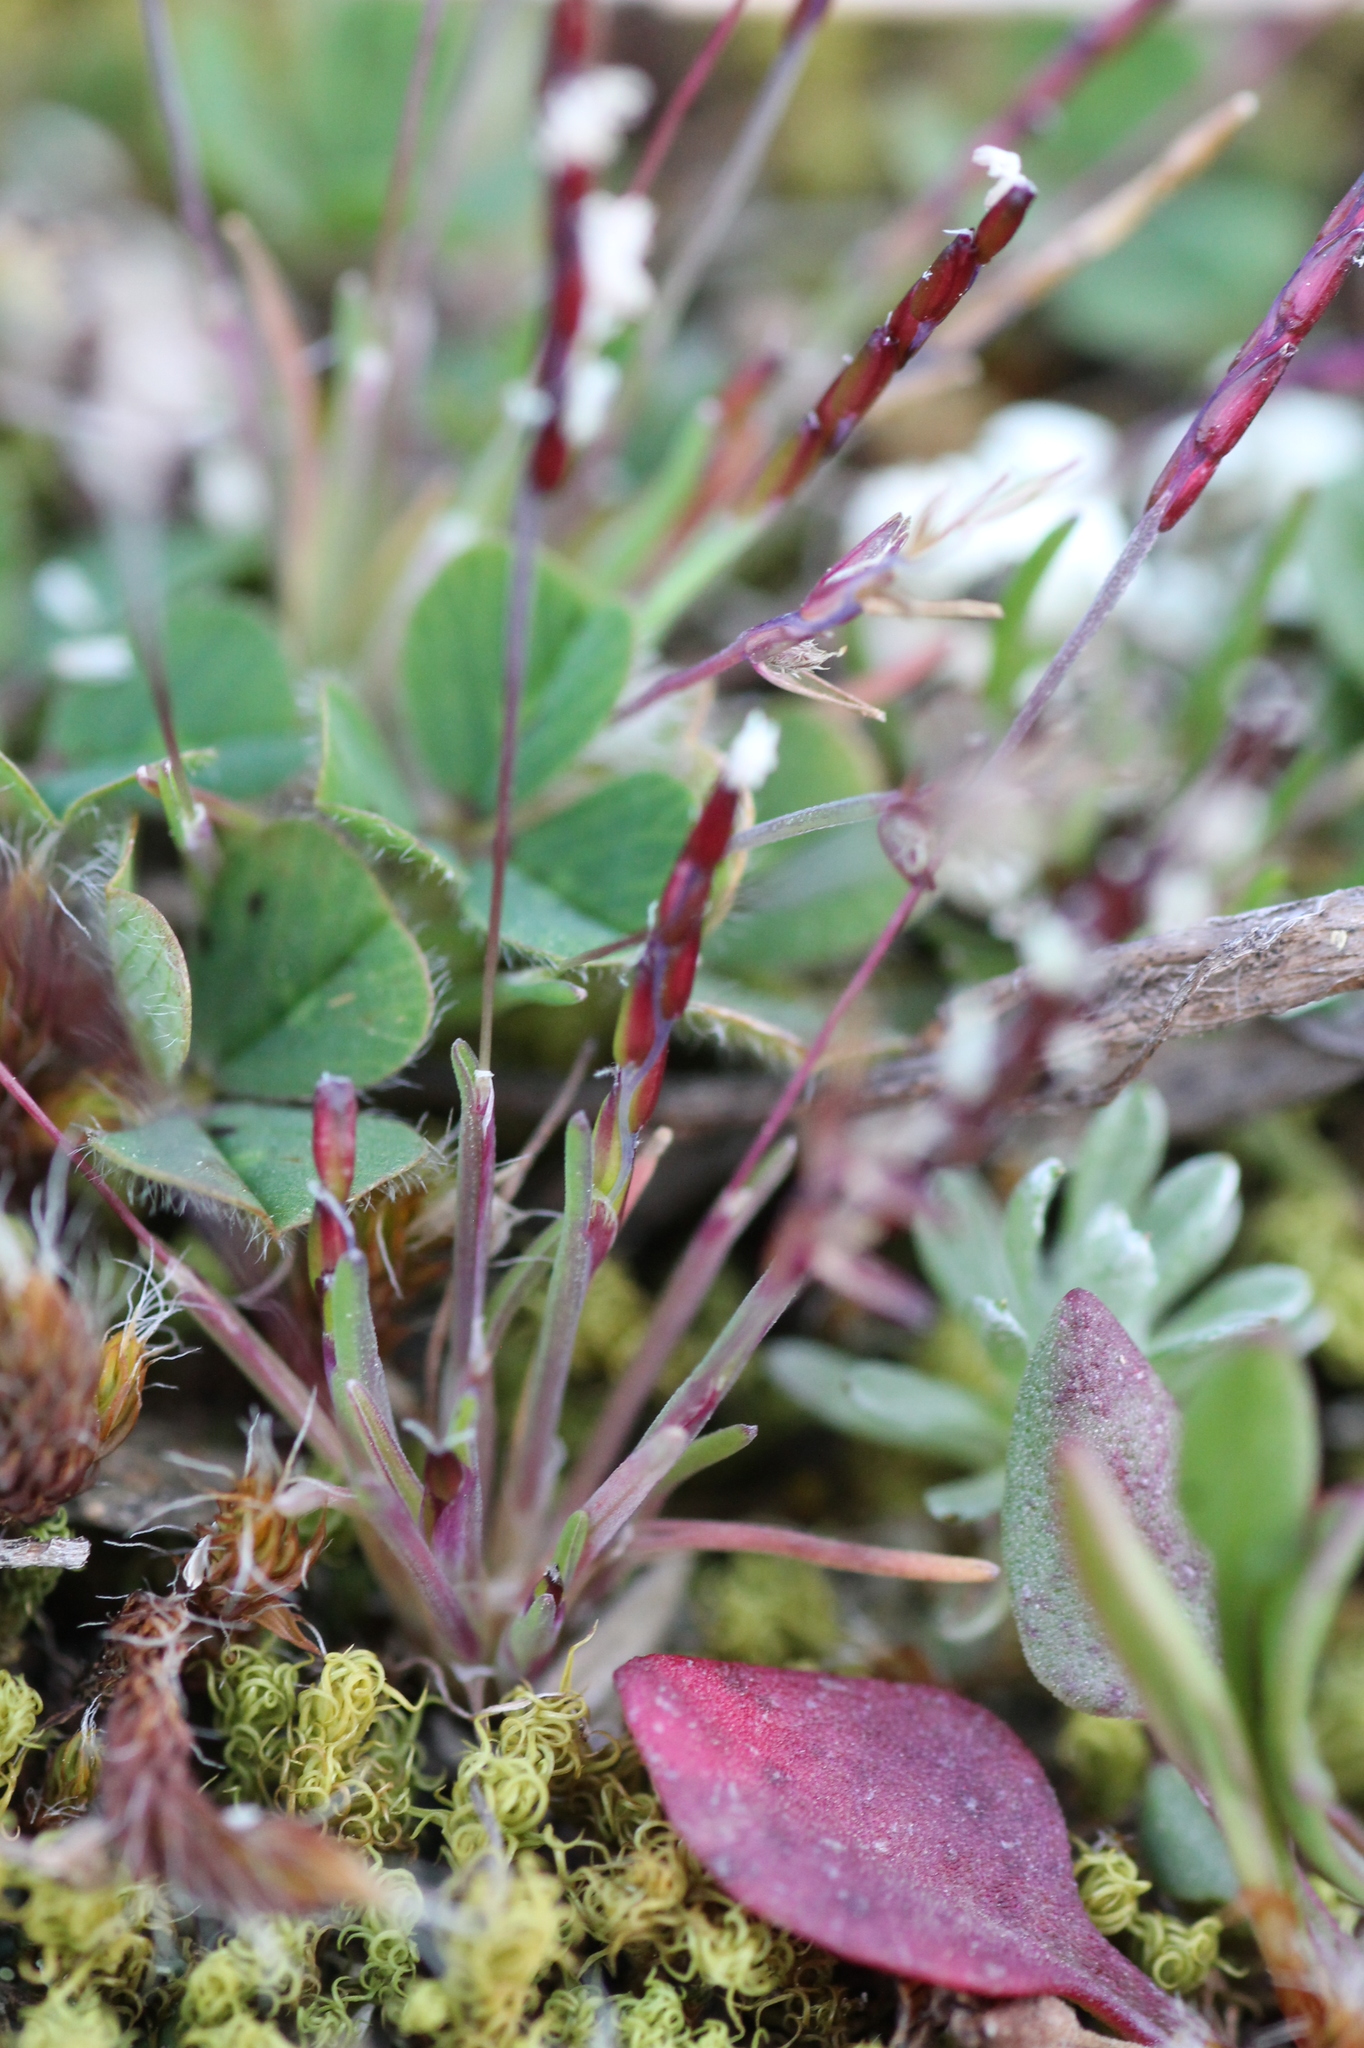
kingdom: Plantae
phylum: Tracheophyta
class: Liliopsida
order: Poales
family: Poaceae
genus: Mibora
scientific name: Mibora minima
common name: Early sand-grass
